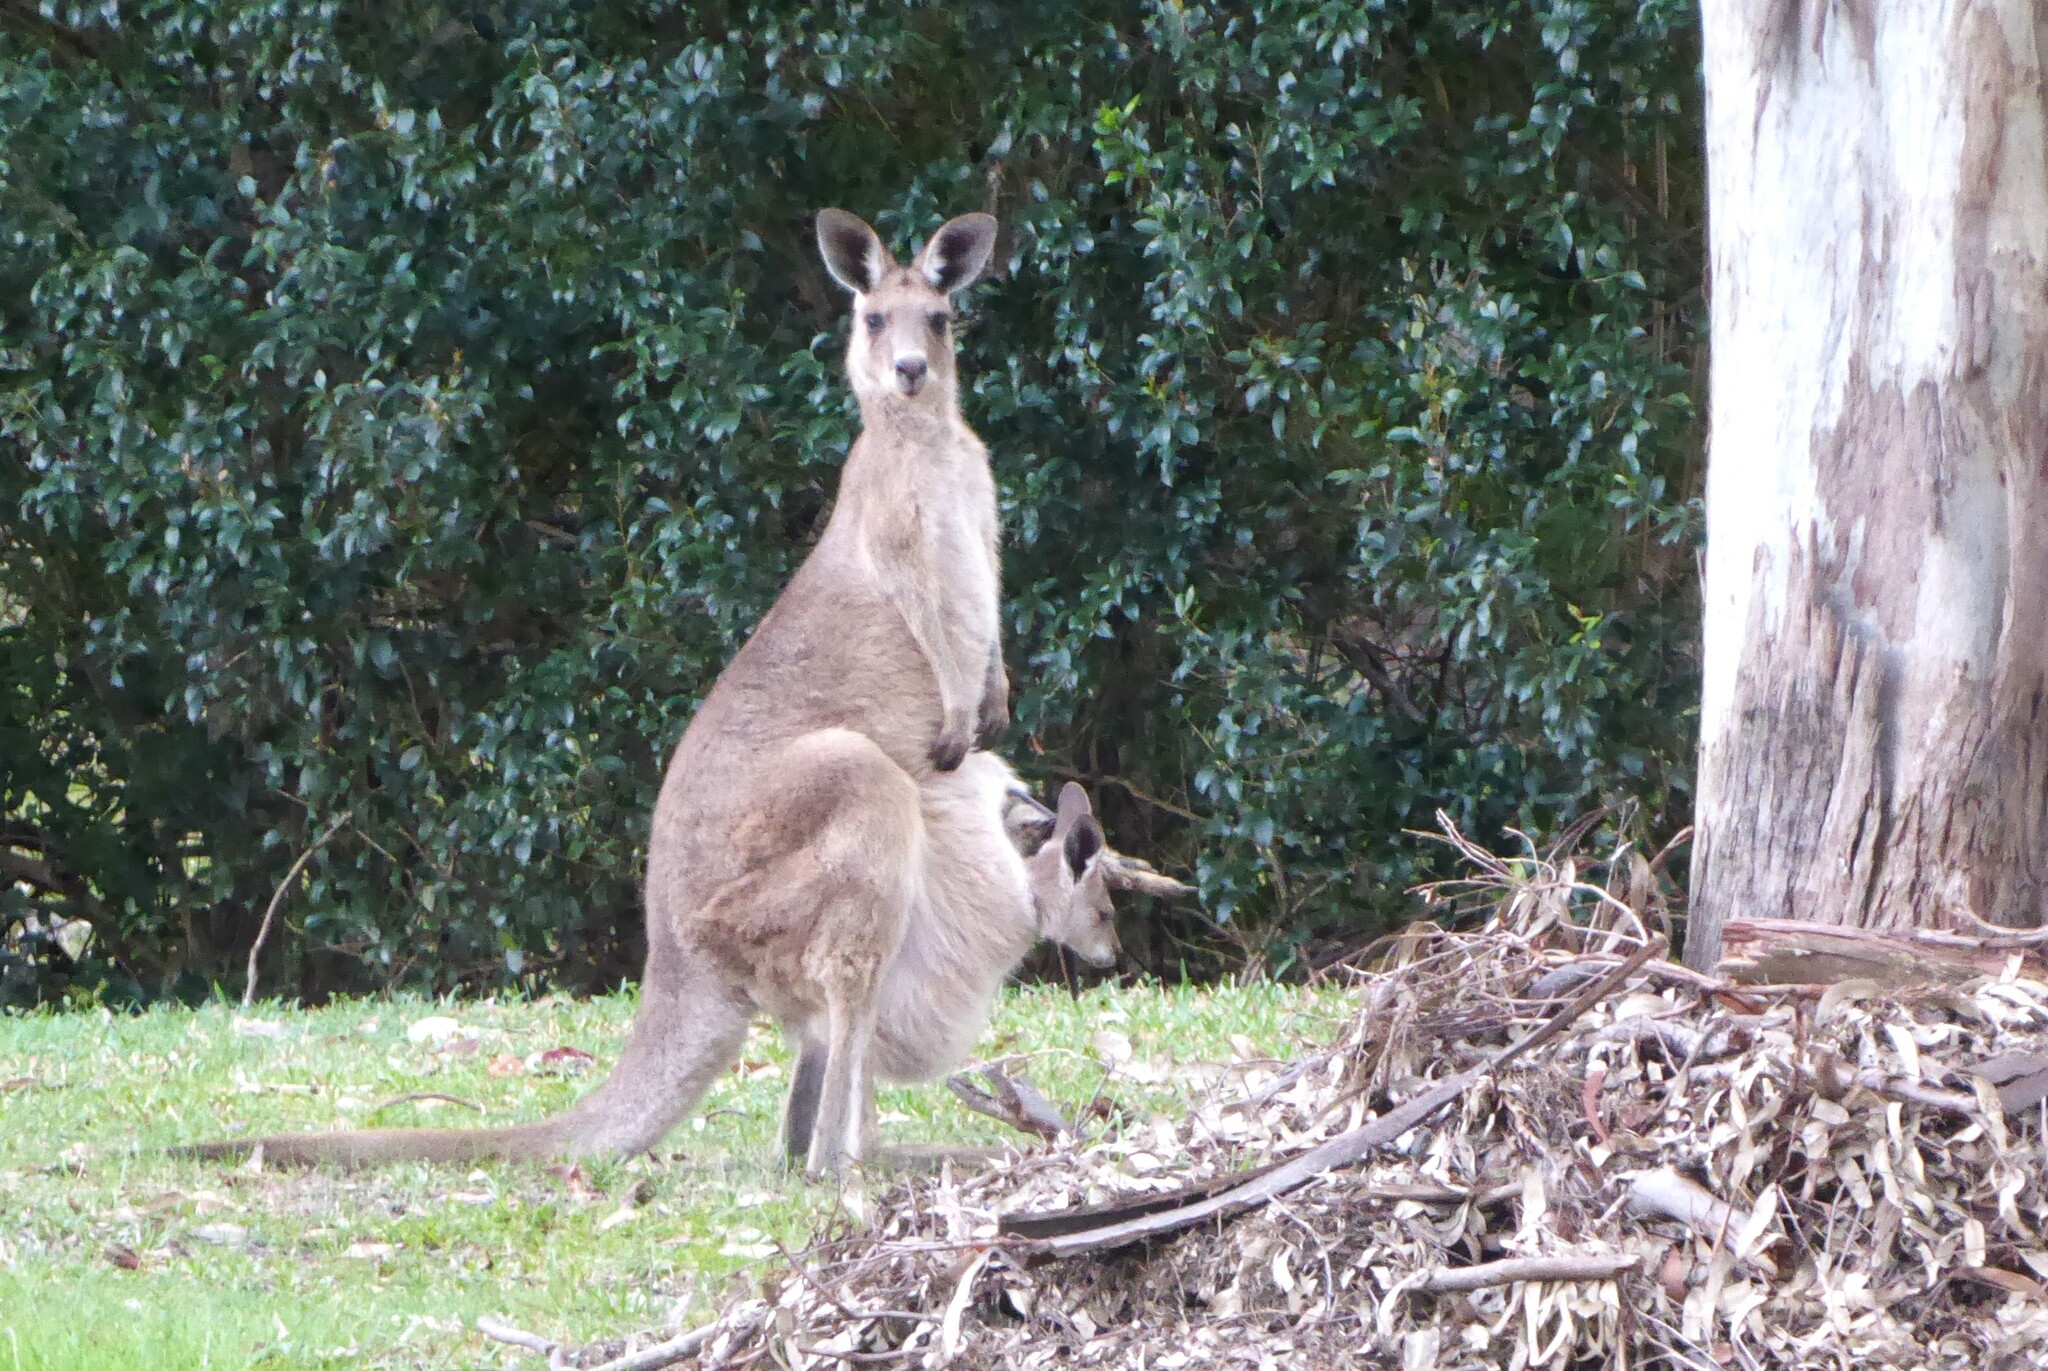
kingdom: Animalia
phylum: Chordata
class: Mammalia
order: Diprotodontia
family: Macropodidae
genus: Macropus
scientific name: Macropus giganteus
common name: Eastern grey kangaroo
